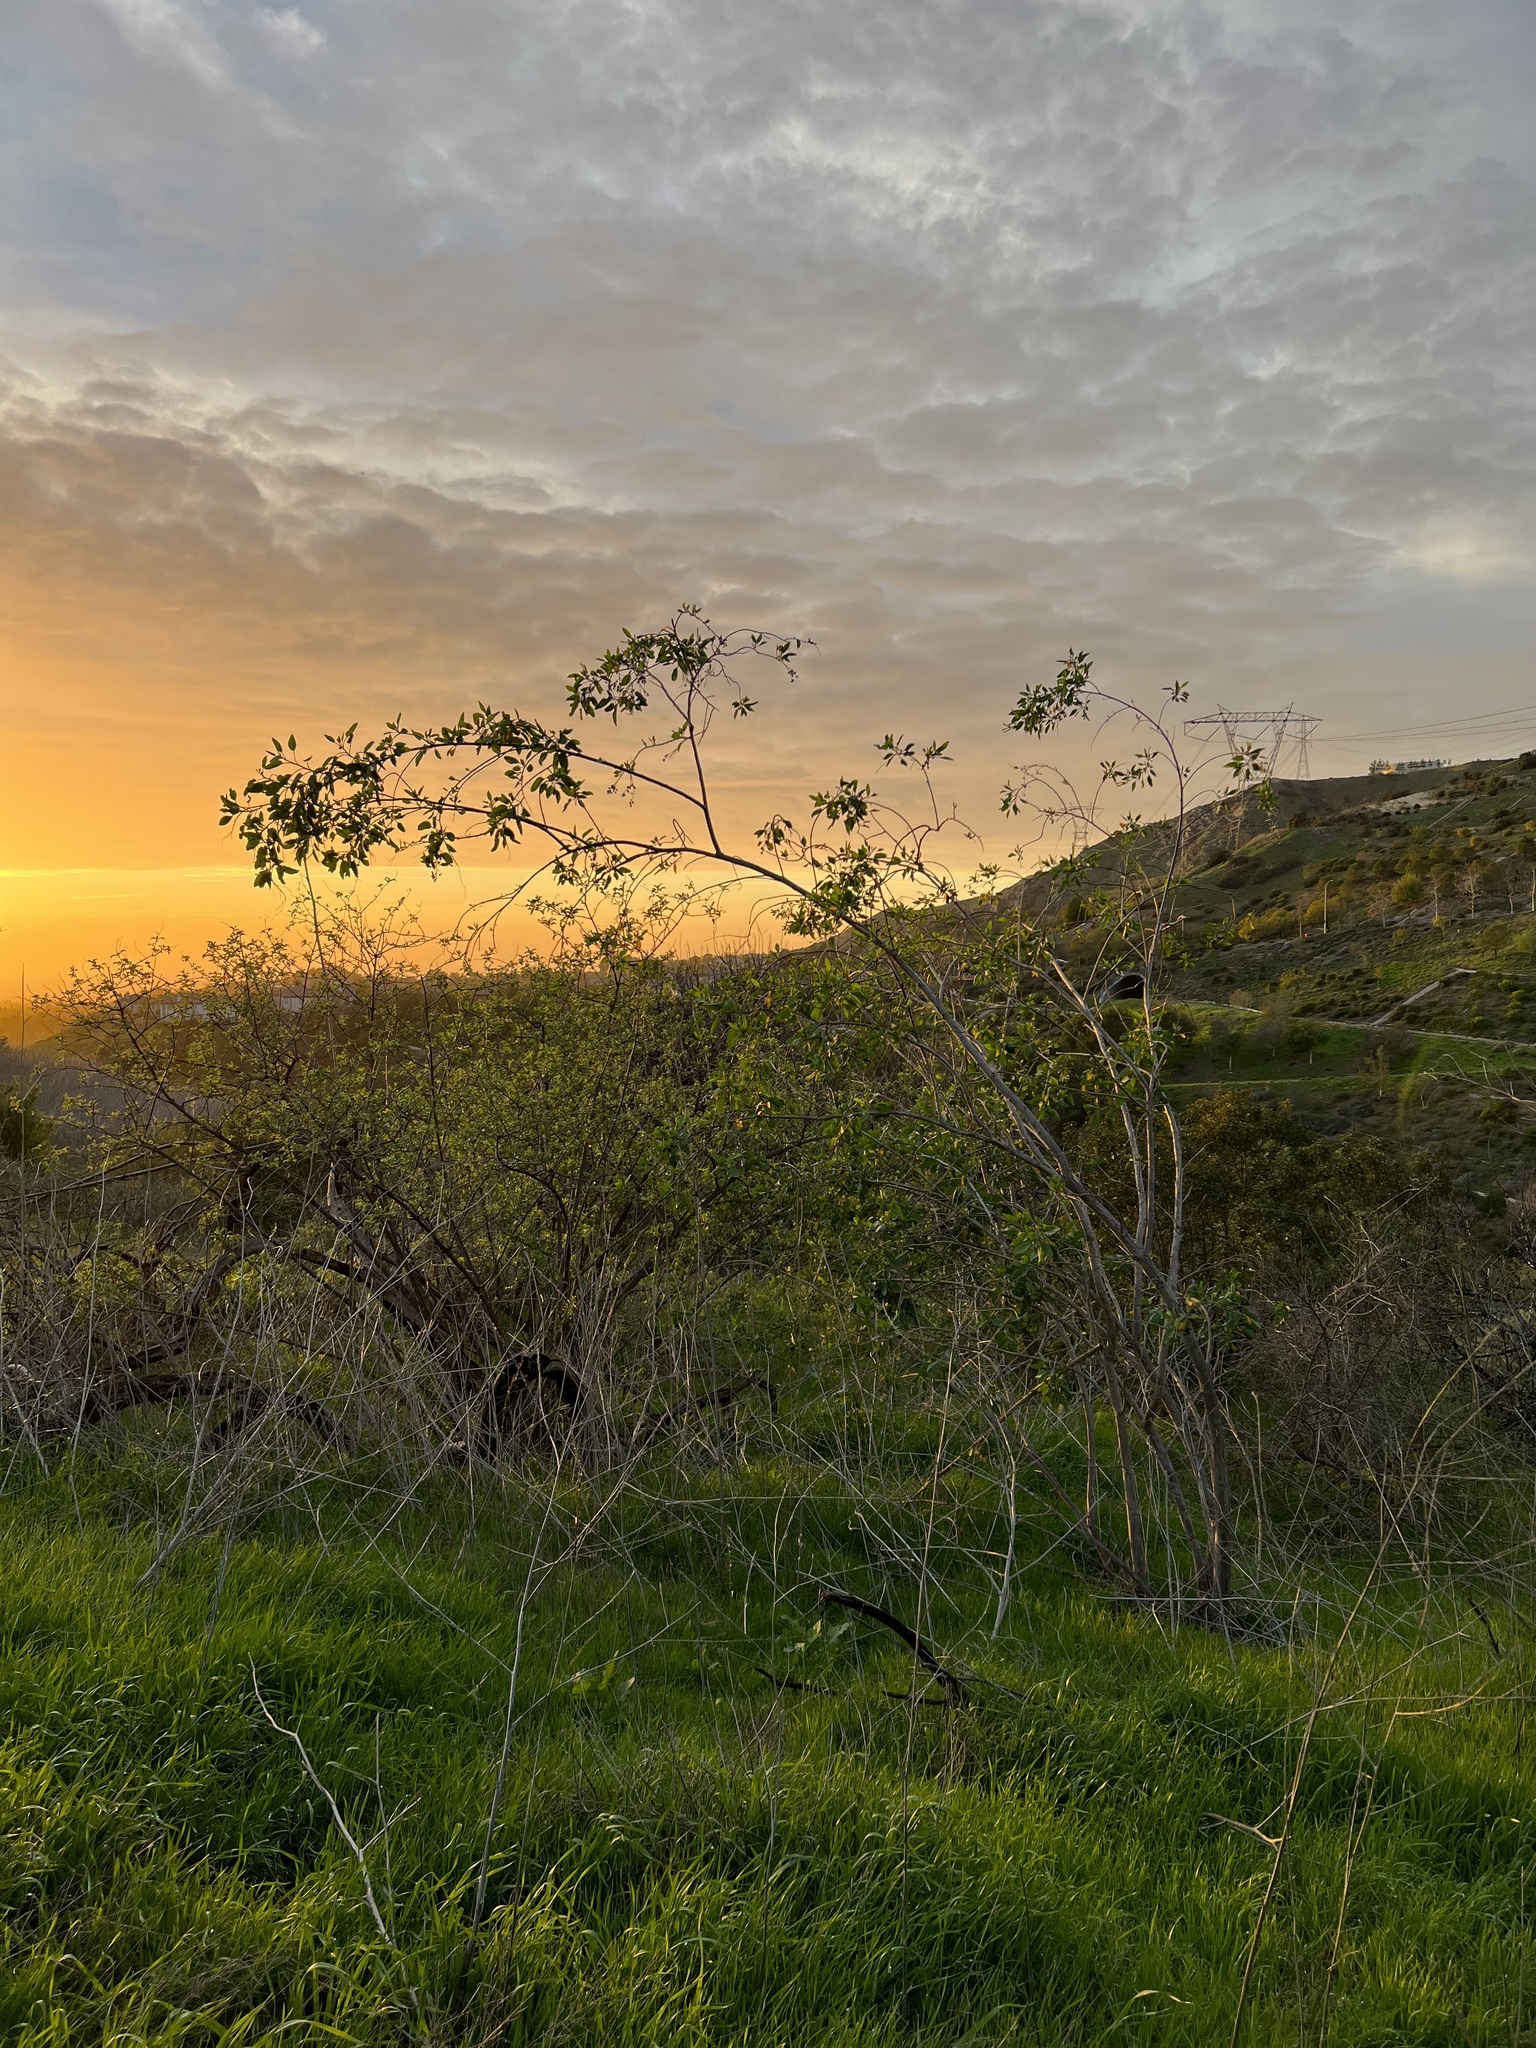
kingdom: Plantae
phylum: Tracheophyta
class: Magnoliopsida
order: Solanales
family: Solanaceae
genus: Nicotiana
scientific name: Nicotiana glauca
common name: Tree tobacco
